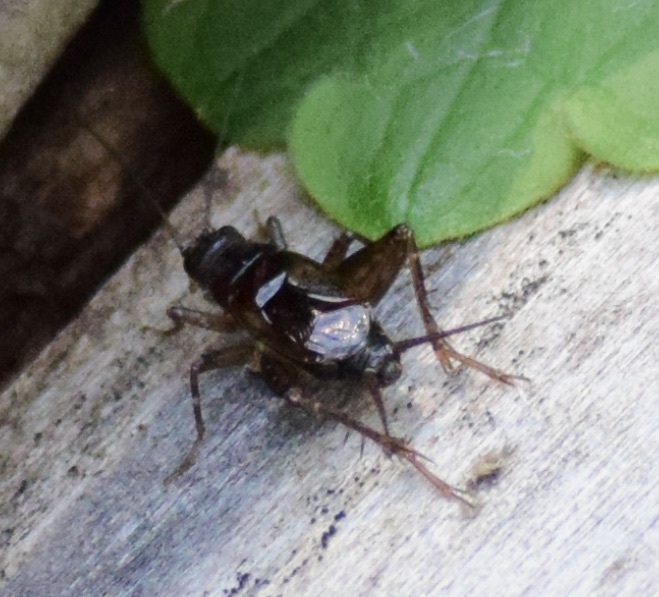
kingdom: Animalia
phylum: Arthropoda
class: Insecta
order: Orthoptera
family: Trigonidiidae
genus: Eunemobius
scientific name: Eunemobius carolinus
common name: Carolina ground cricket
